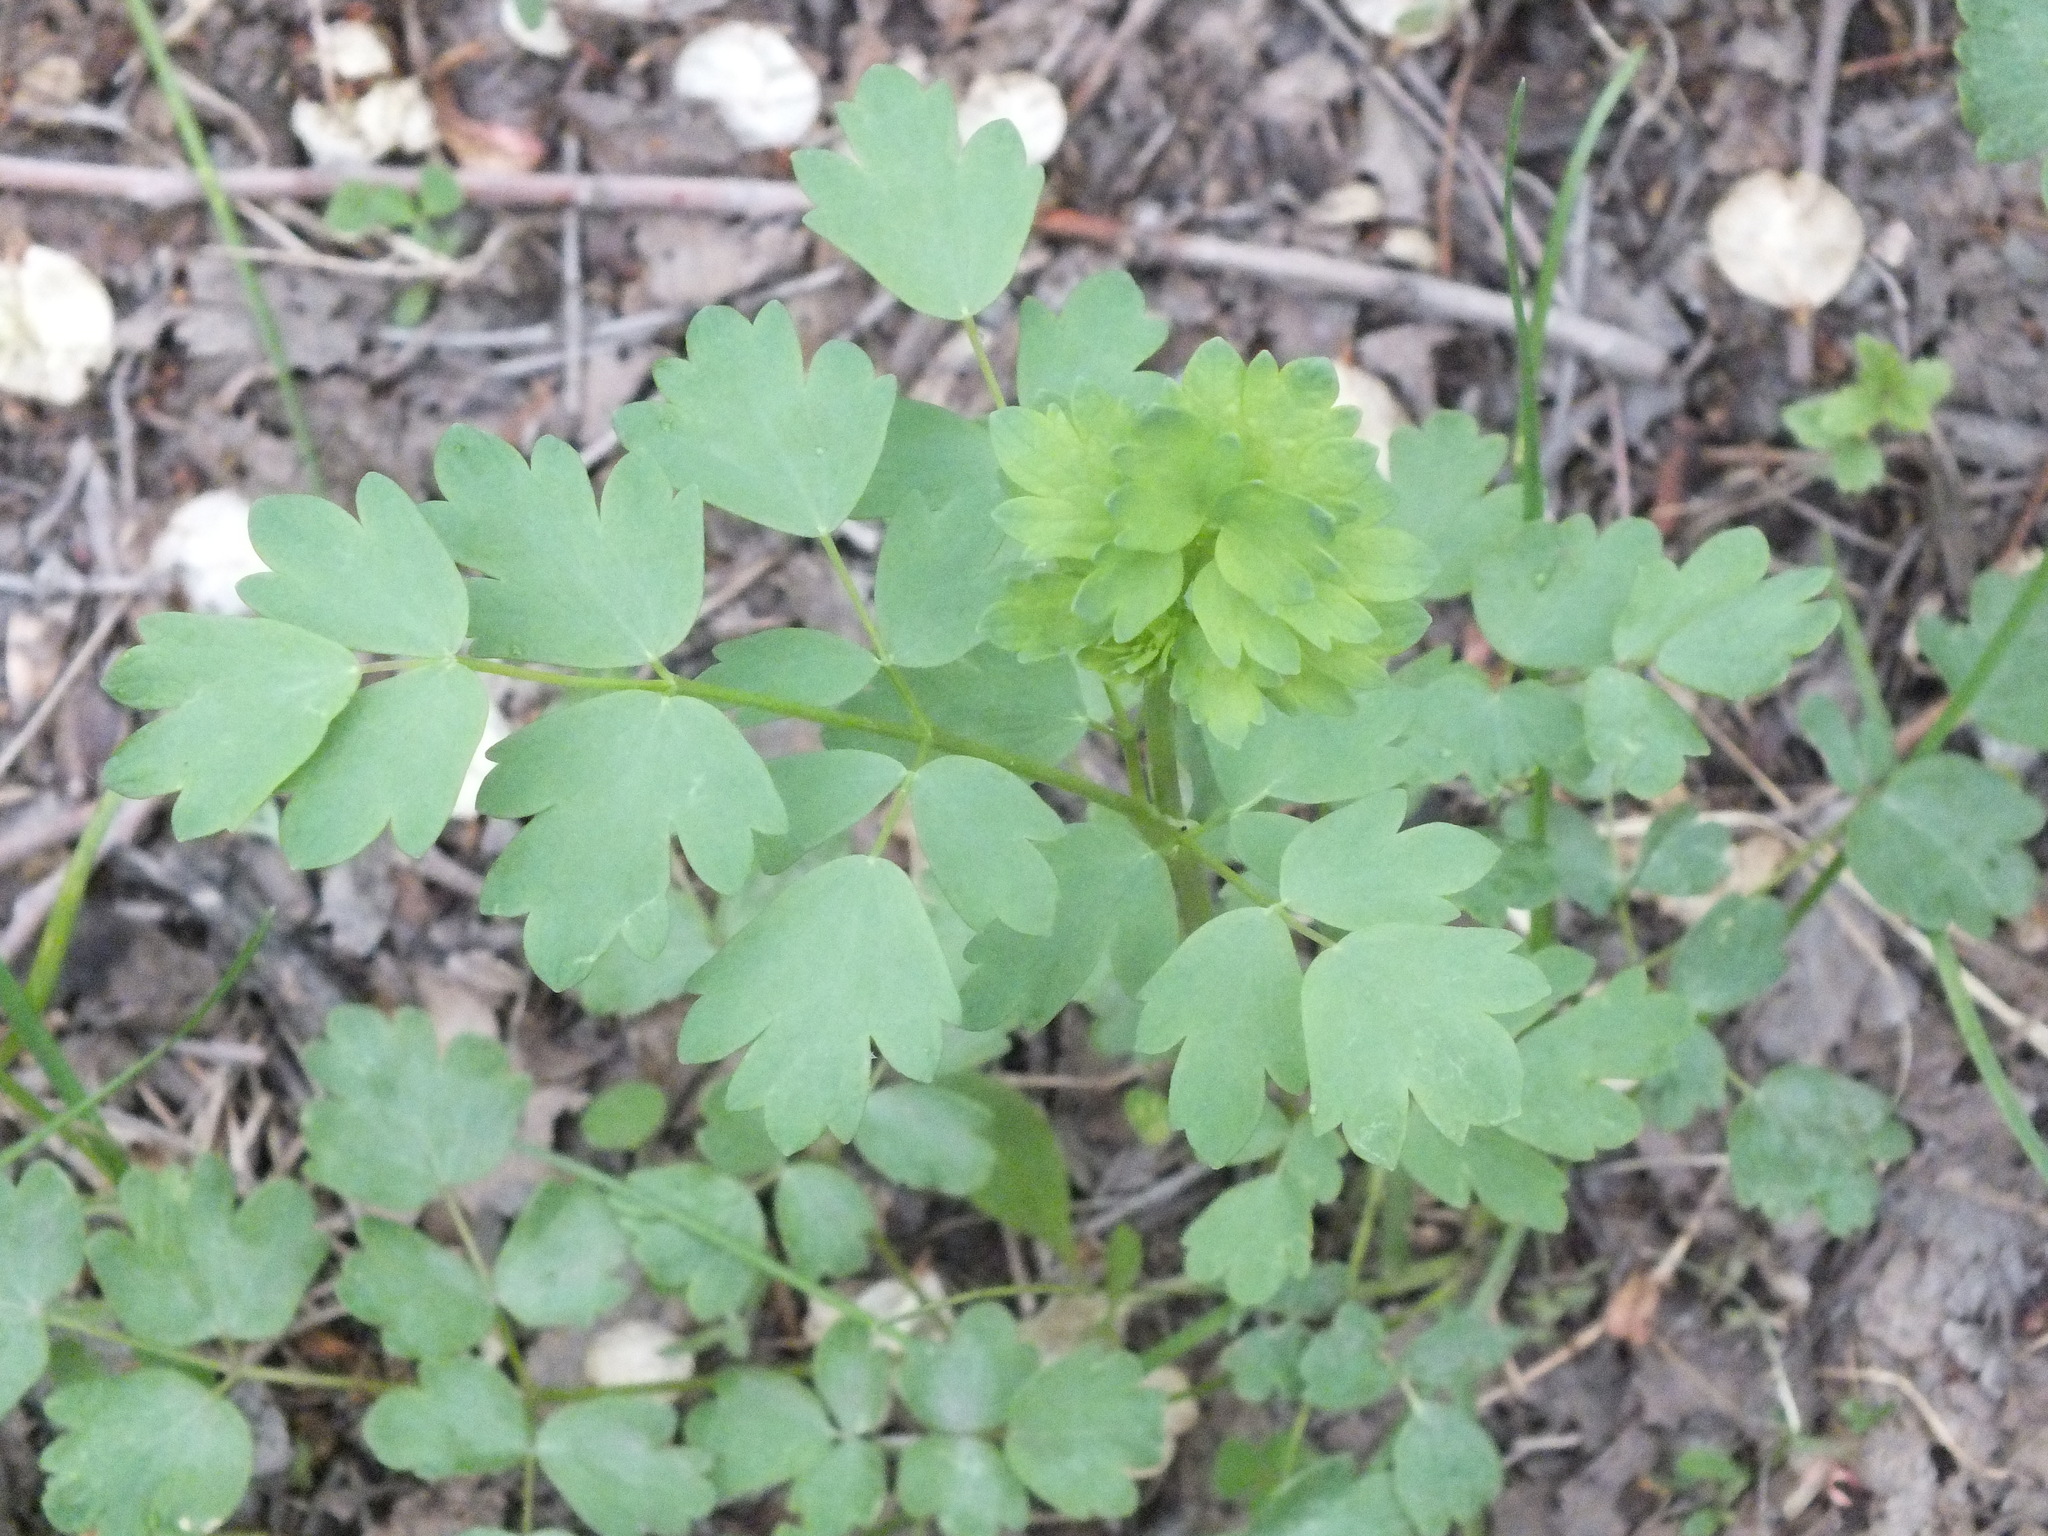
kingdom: Plantae
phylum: Tracheophyta
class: Magnoliopsida
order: Ranunculales
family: Ranunculaceae
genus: Thalictrum
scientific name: Thalictrum minus
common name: Lesser meadow-rue
